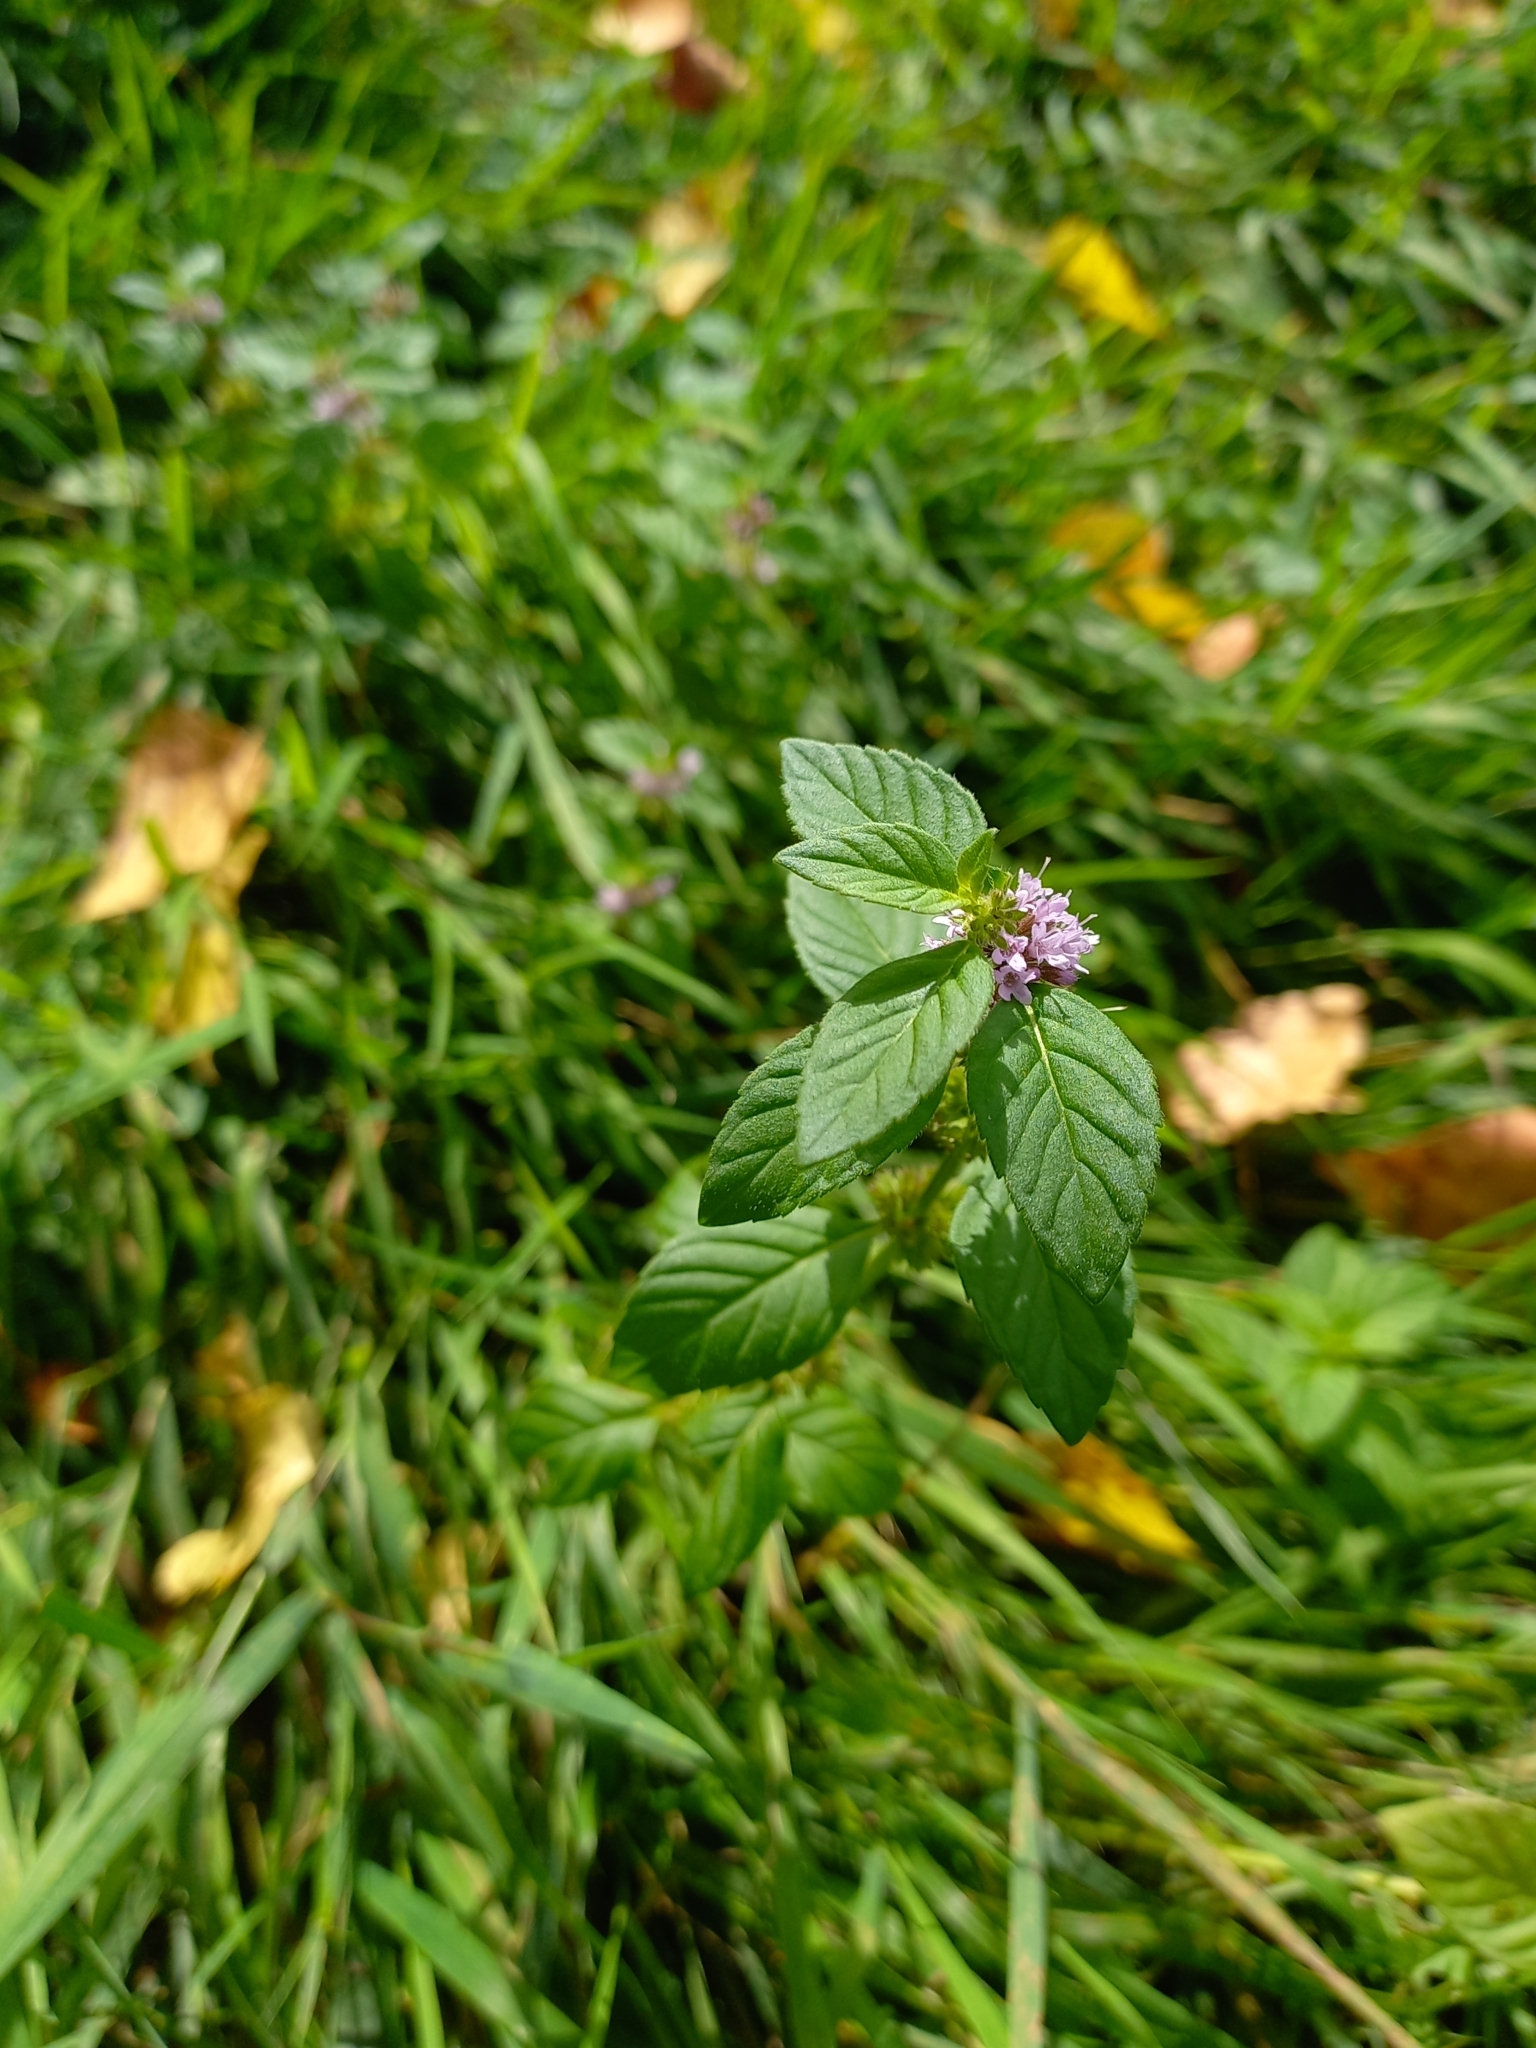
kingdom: Plantae
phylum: Tracheophyta
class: Magnoliopsida
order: Lamiales
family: Lamiaceae
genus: Mentha
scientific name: Mentha arvensis
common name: Corn mint
